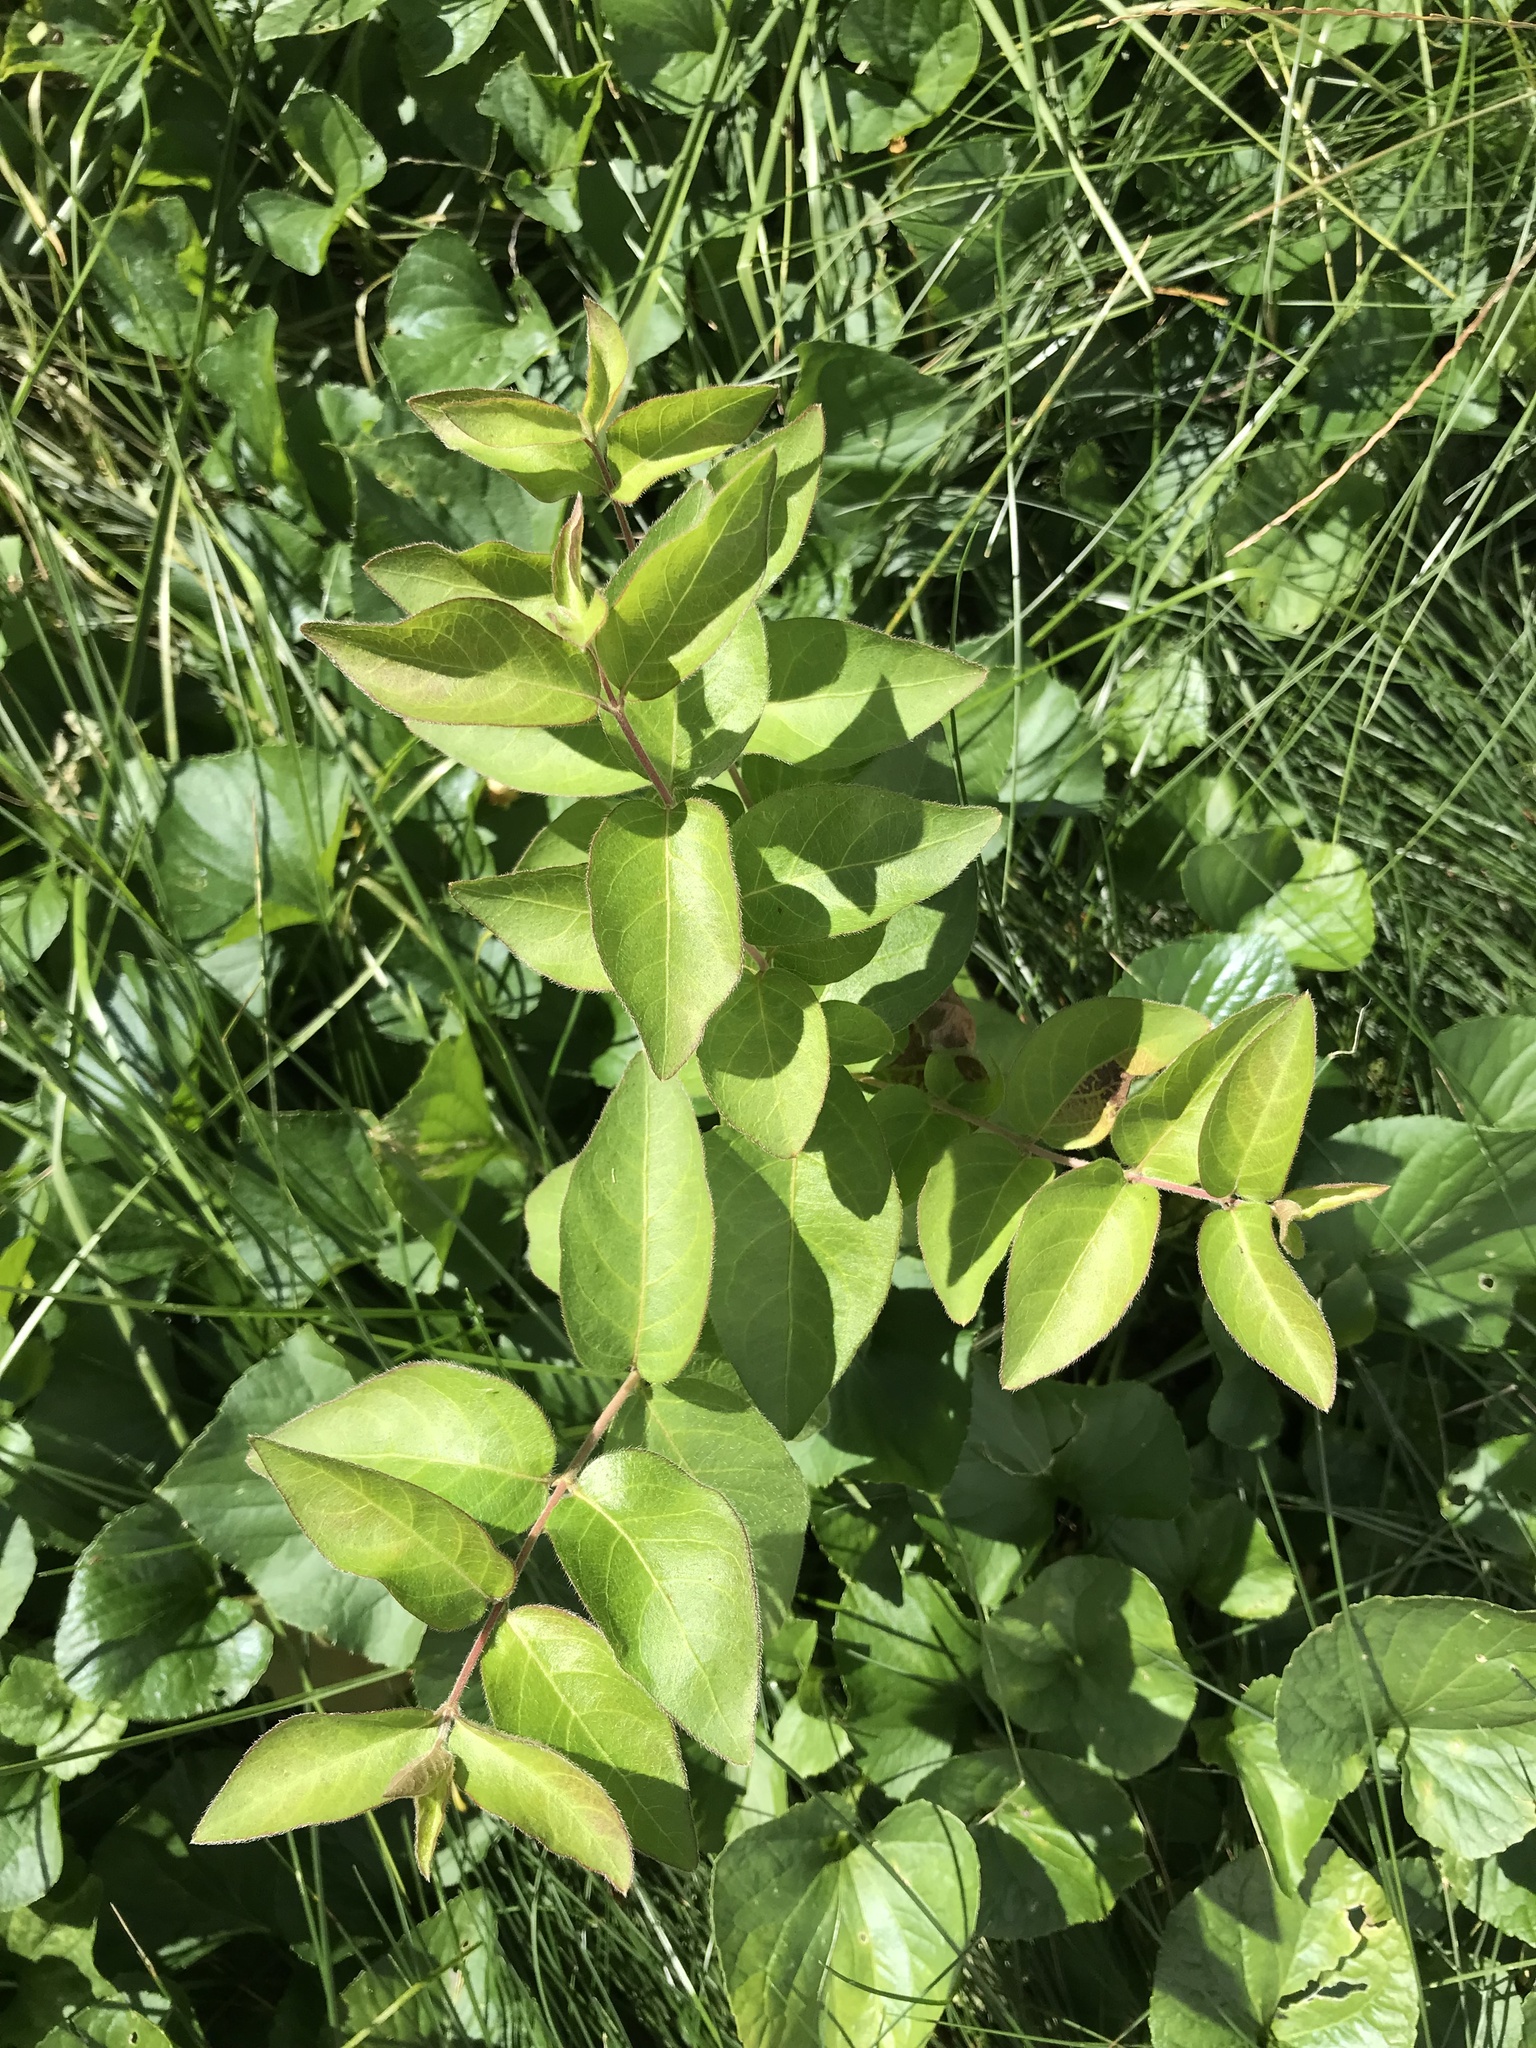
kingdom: Plantae
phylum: Tracheophyta
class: Magnoliopsida
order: Dipsacales
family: Caprifoliaceae
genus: Lonicera
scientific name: Lonicera maackii
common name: Amur honeysuckle
